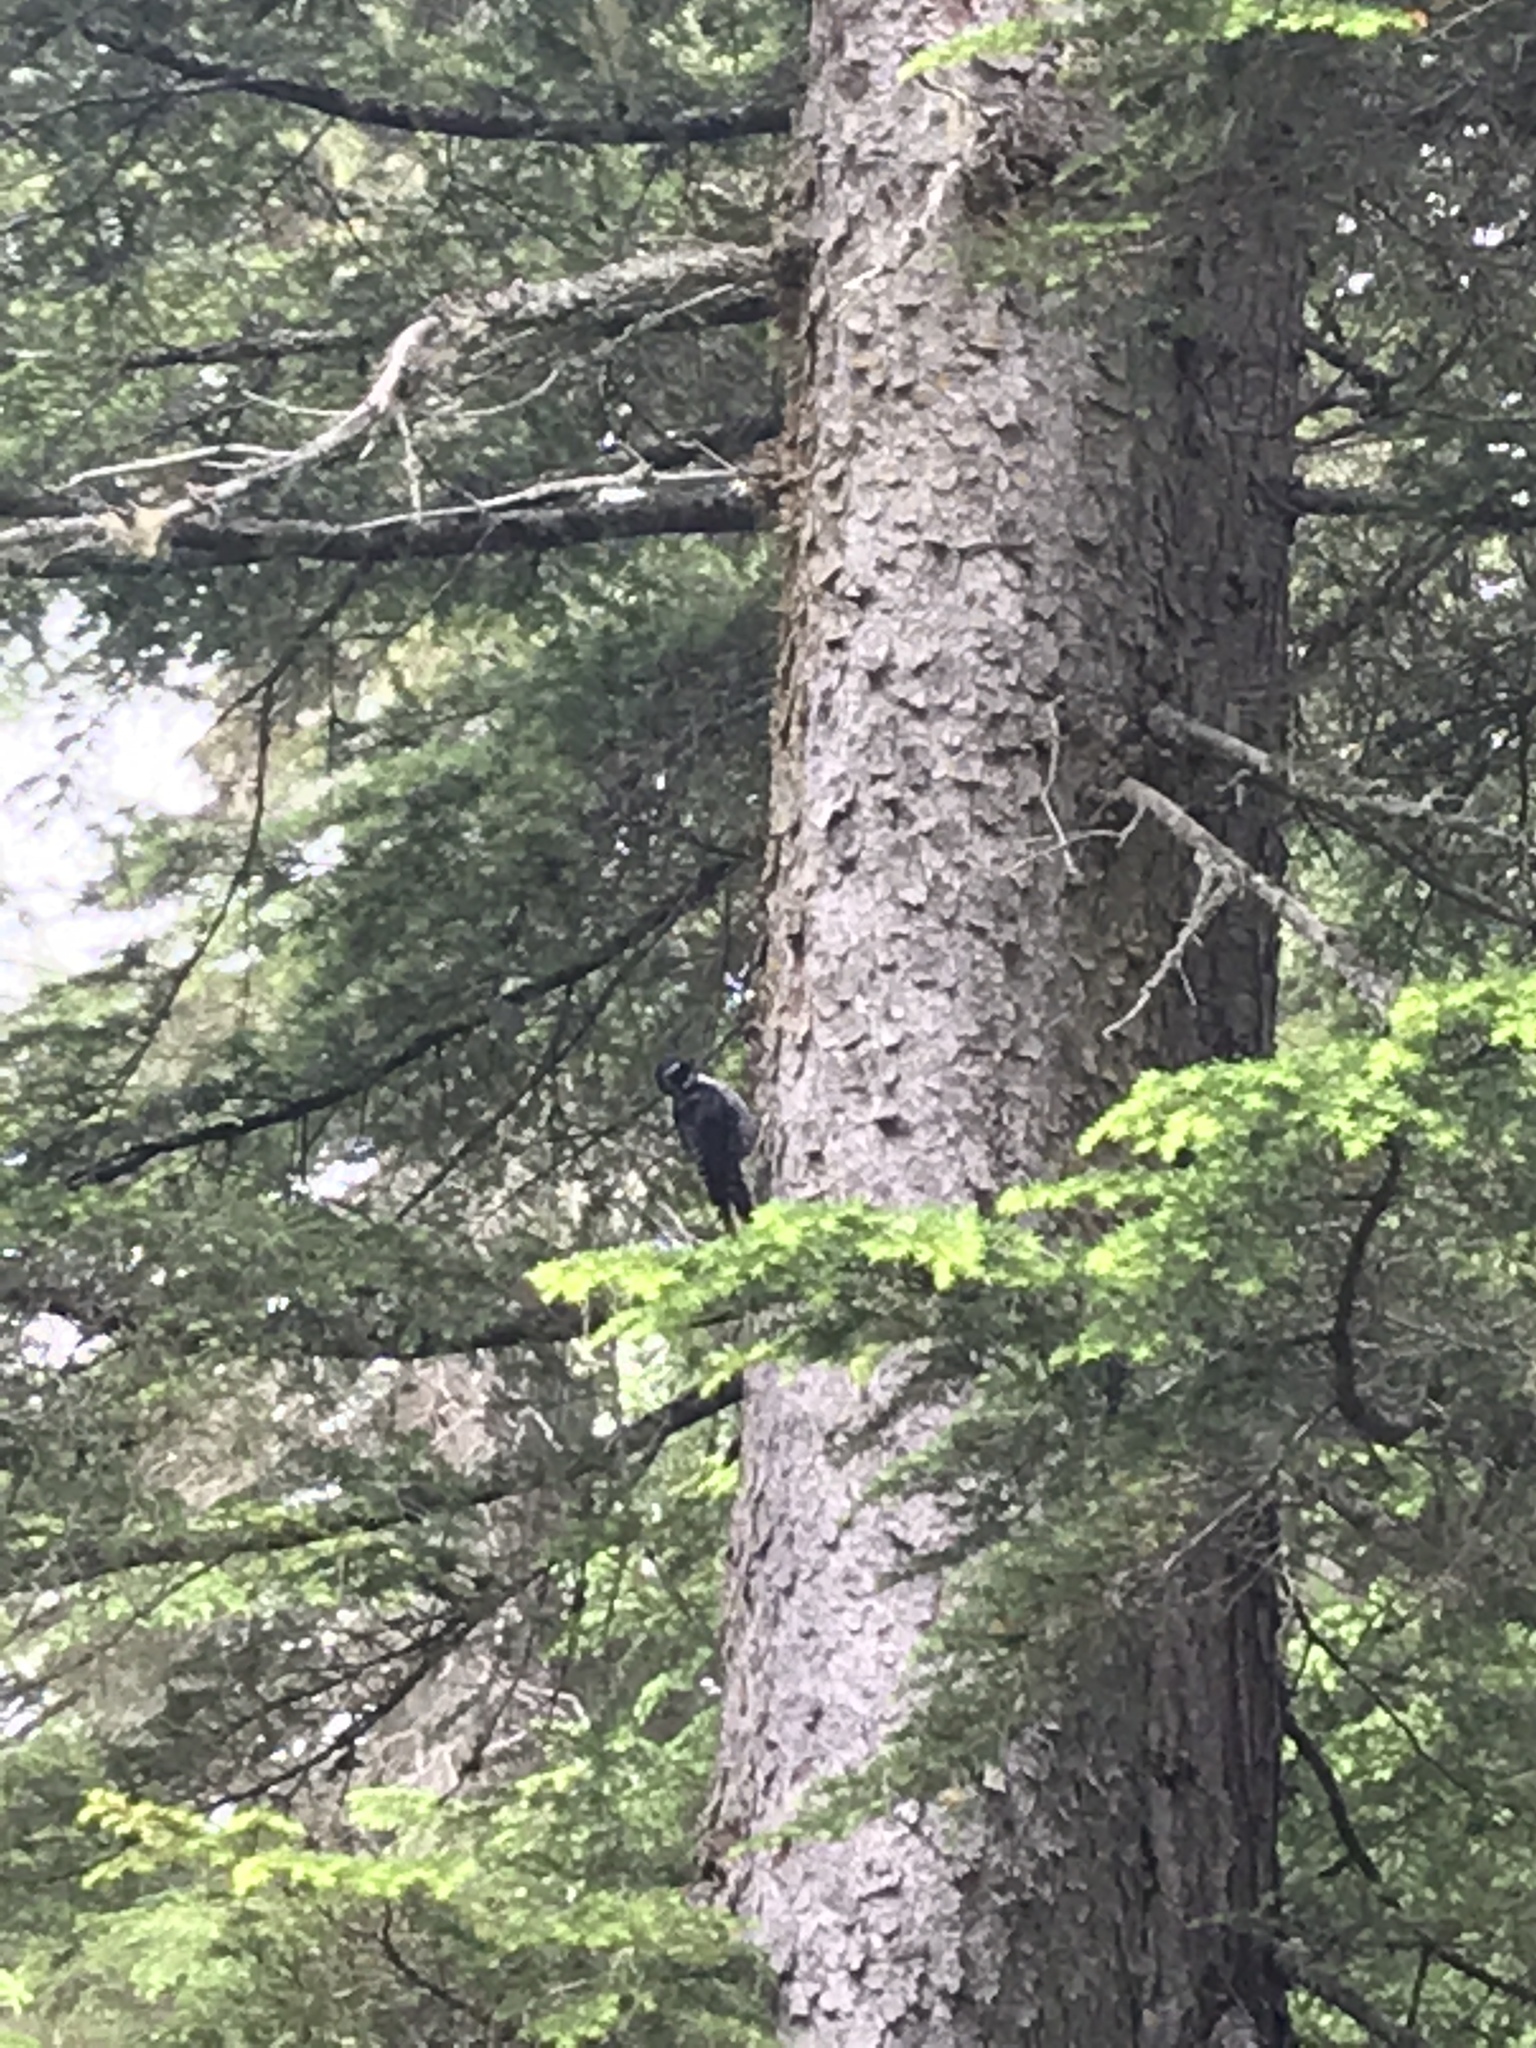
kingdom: Animalia
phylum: Chordata
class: Aves
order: Piciformes
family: Picidae
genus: Picoides
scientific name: Picoides arcticus
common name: Black-backed woodpecker
